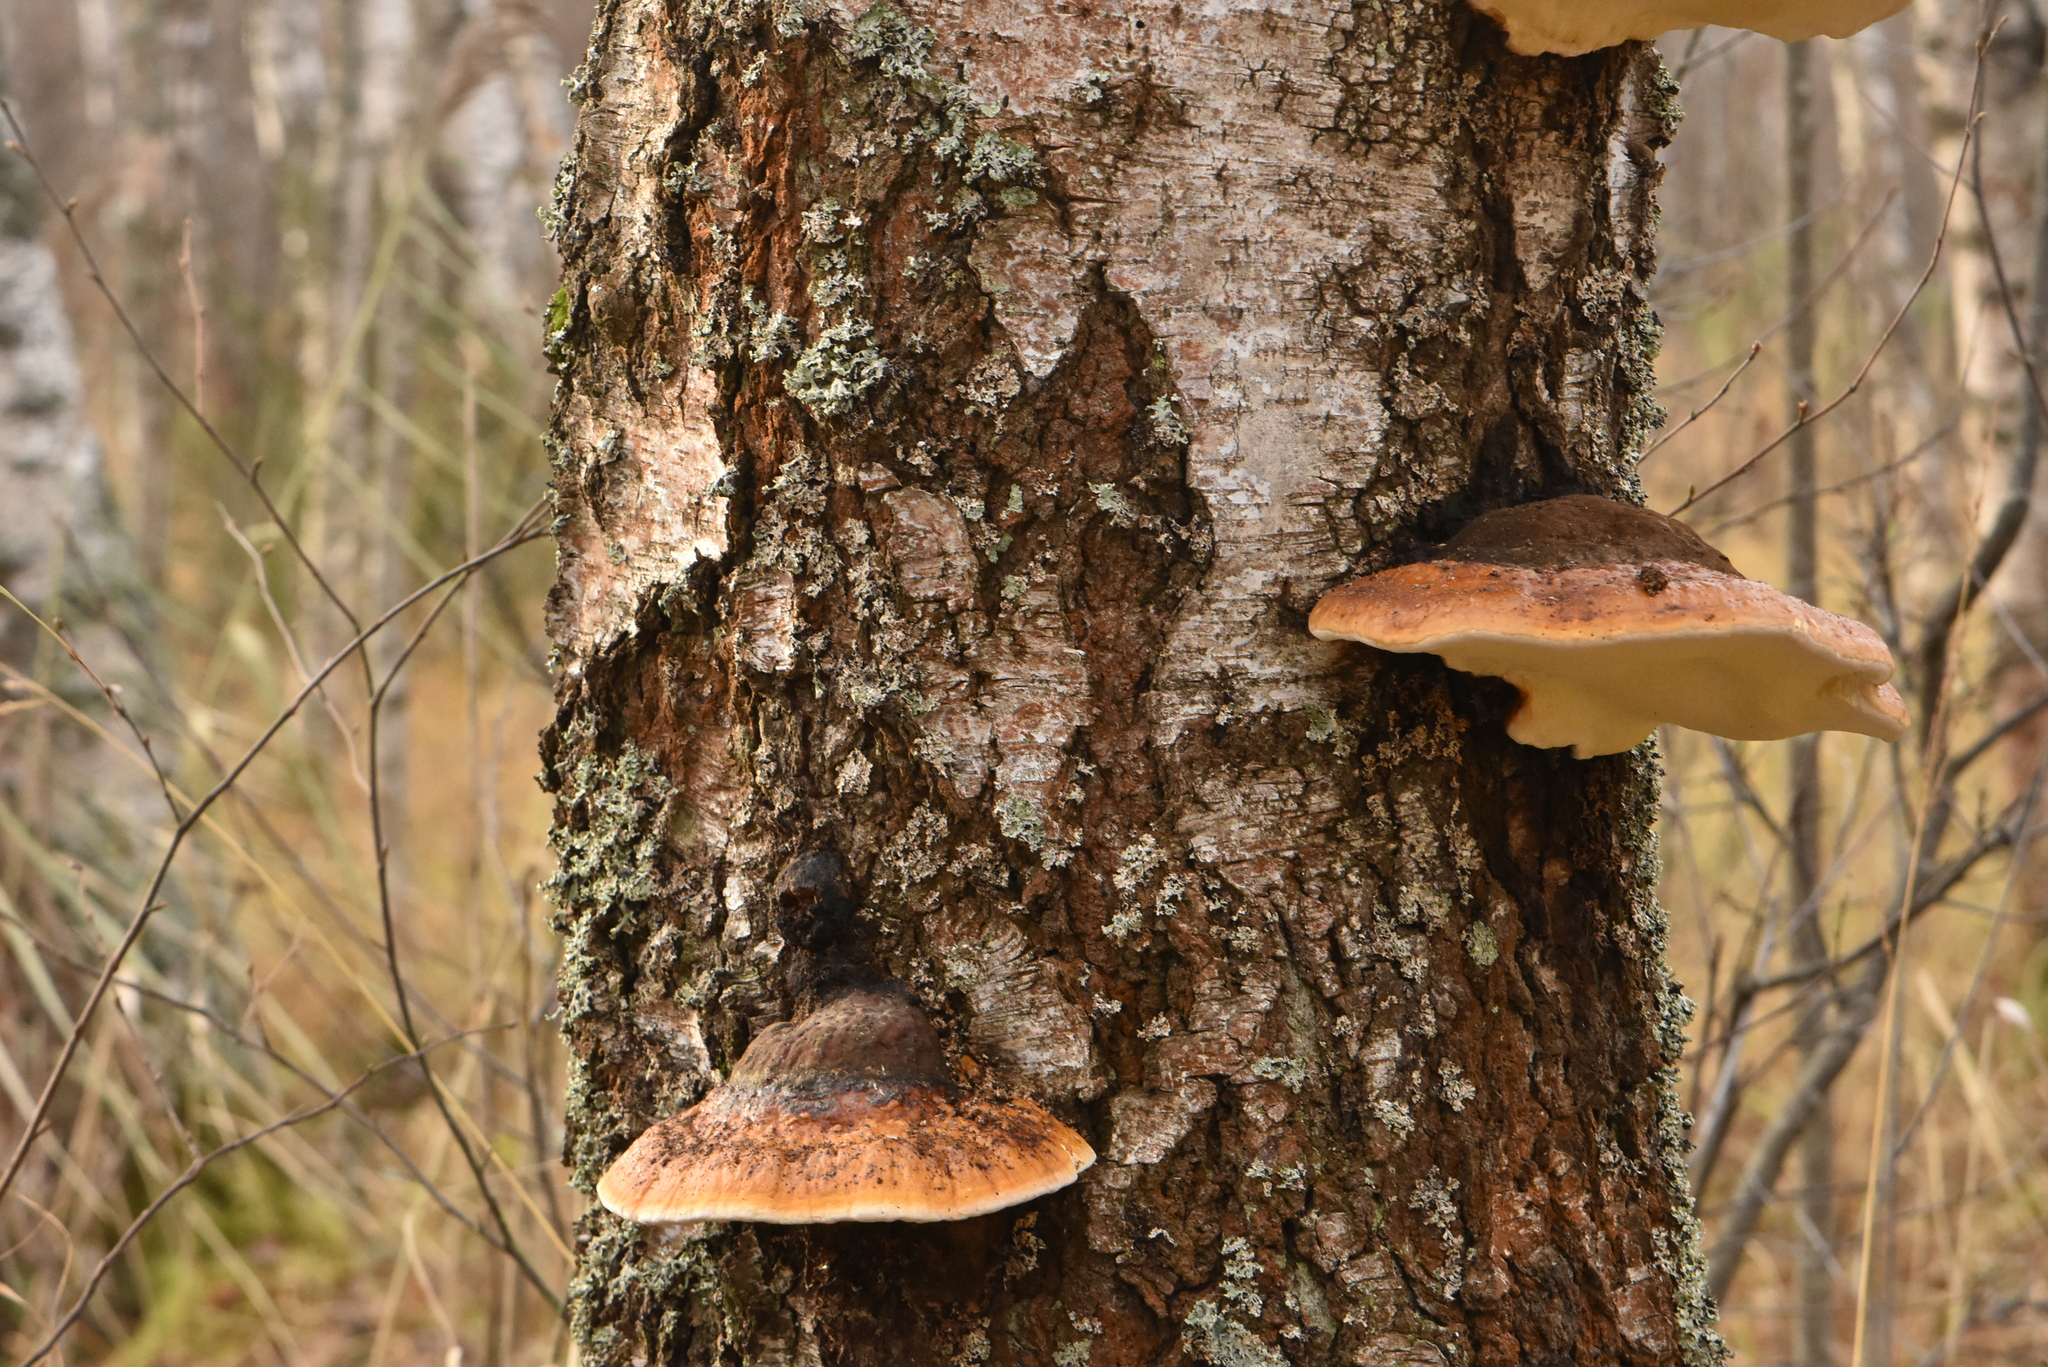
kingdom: Fungi
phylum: Basidiomycota
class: Agaricomycetes
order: Polyporales
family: Fomitopsidaceae
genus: Fomitopsis
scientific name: Fomitopsis pinicola
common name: Red-belted bracket
